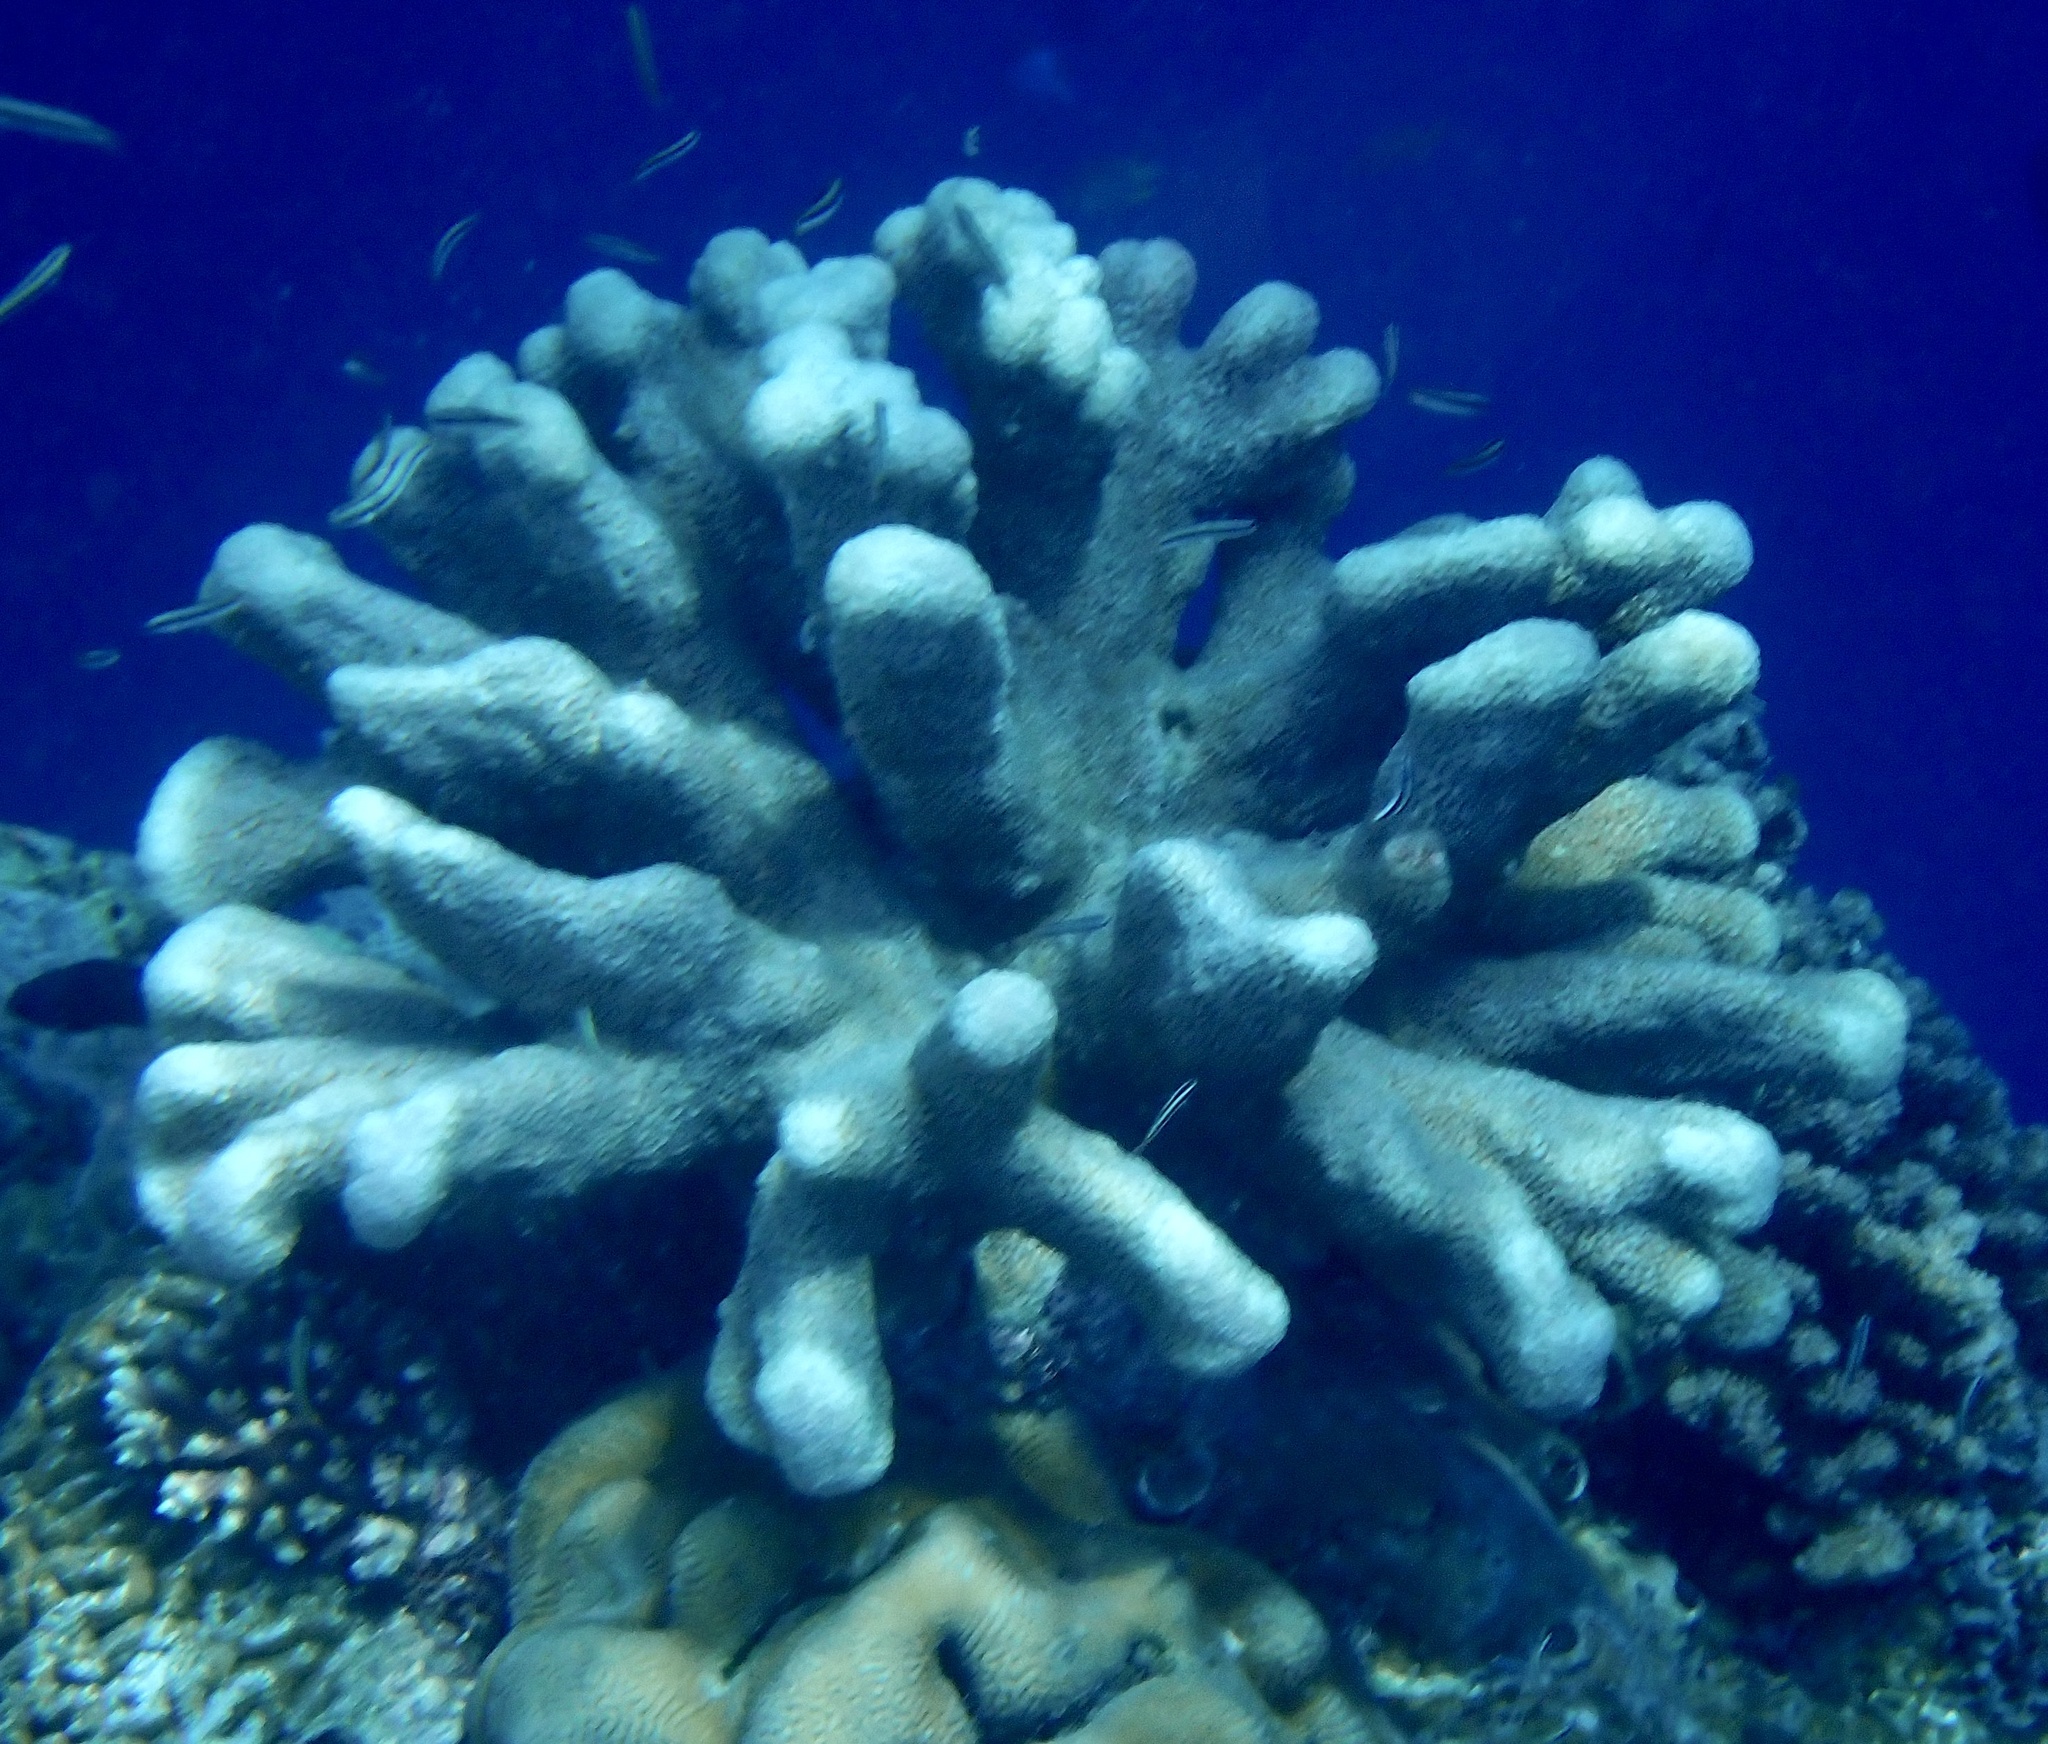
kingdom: Animalia
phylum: Cnidaria
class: Anthozoa
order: Scleractinia
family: Acroporidae
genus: Isopora
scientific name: Isopora palifera
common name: Catch bowl coral
